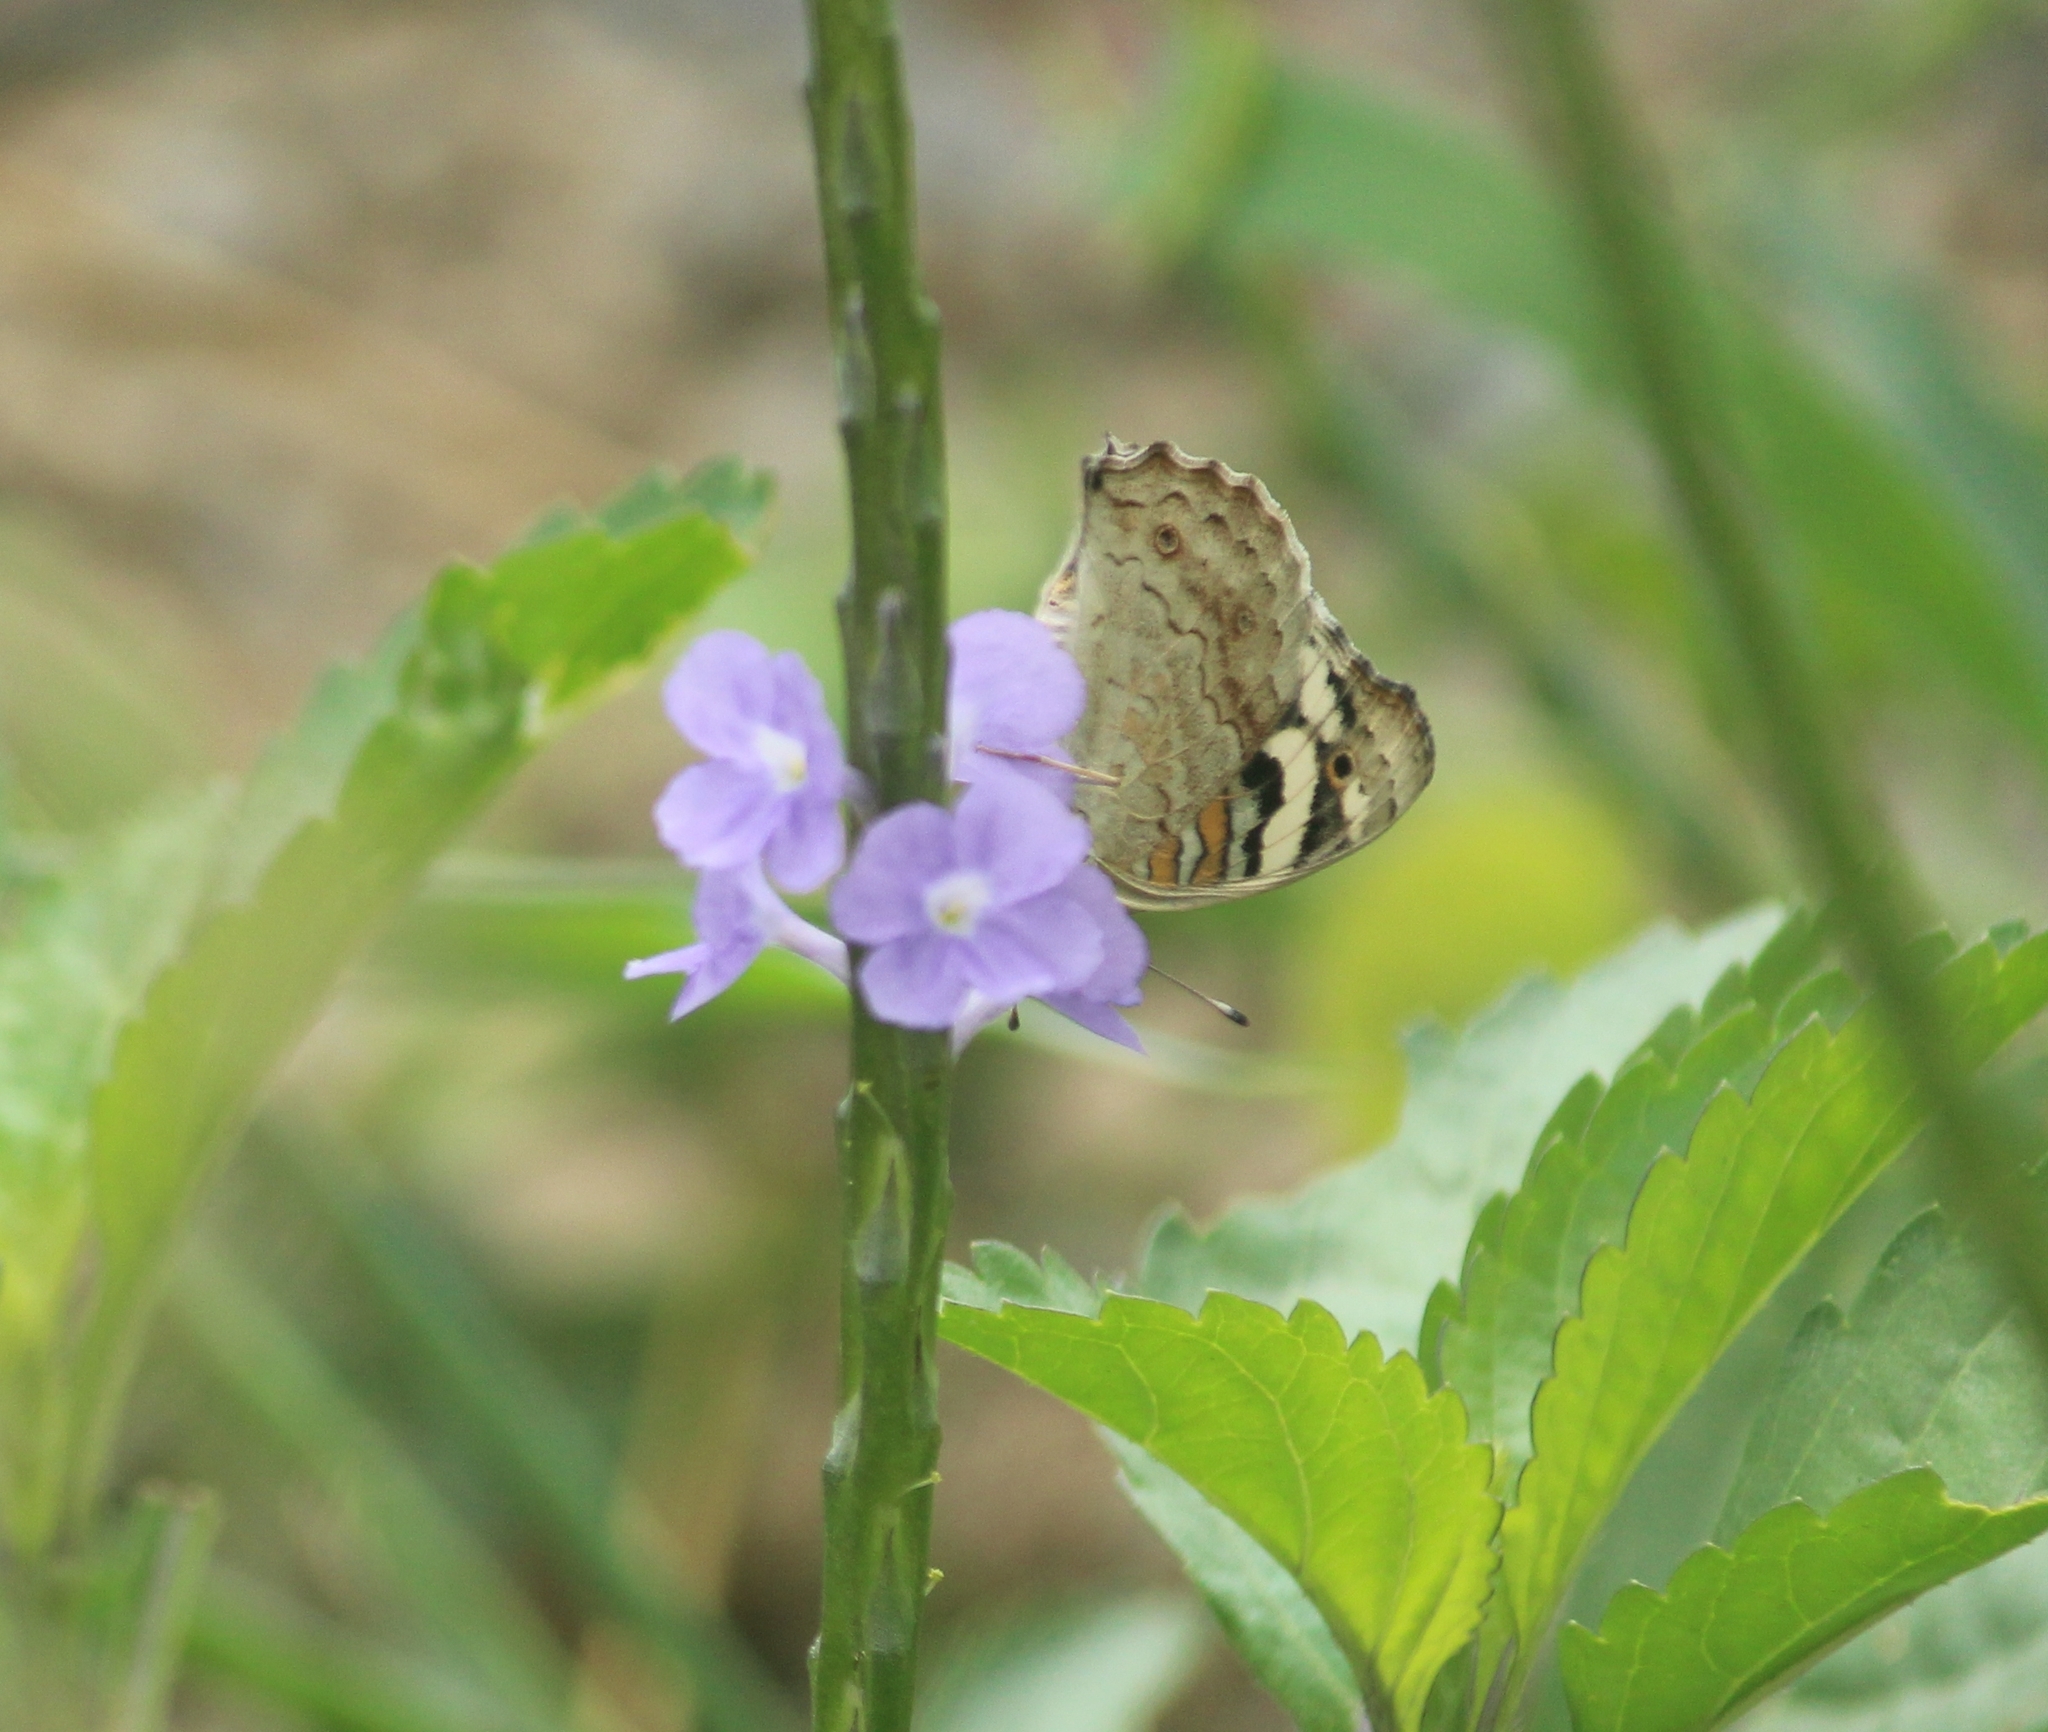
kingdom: Animalia
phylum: Arthropoda
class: Insecta
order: Lepidoptera
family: Nymphalidae
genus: Junonia
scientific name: Junonia orithya
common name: Blue pansy
